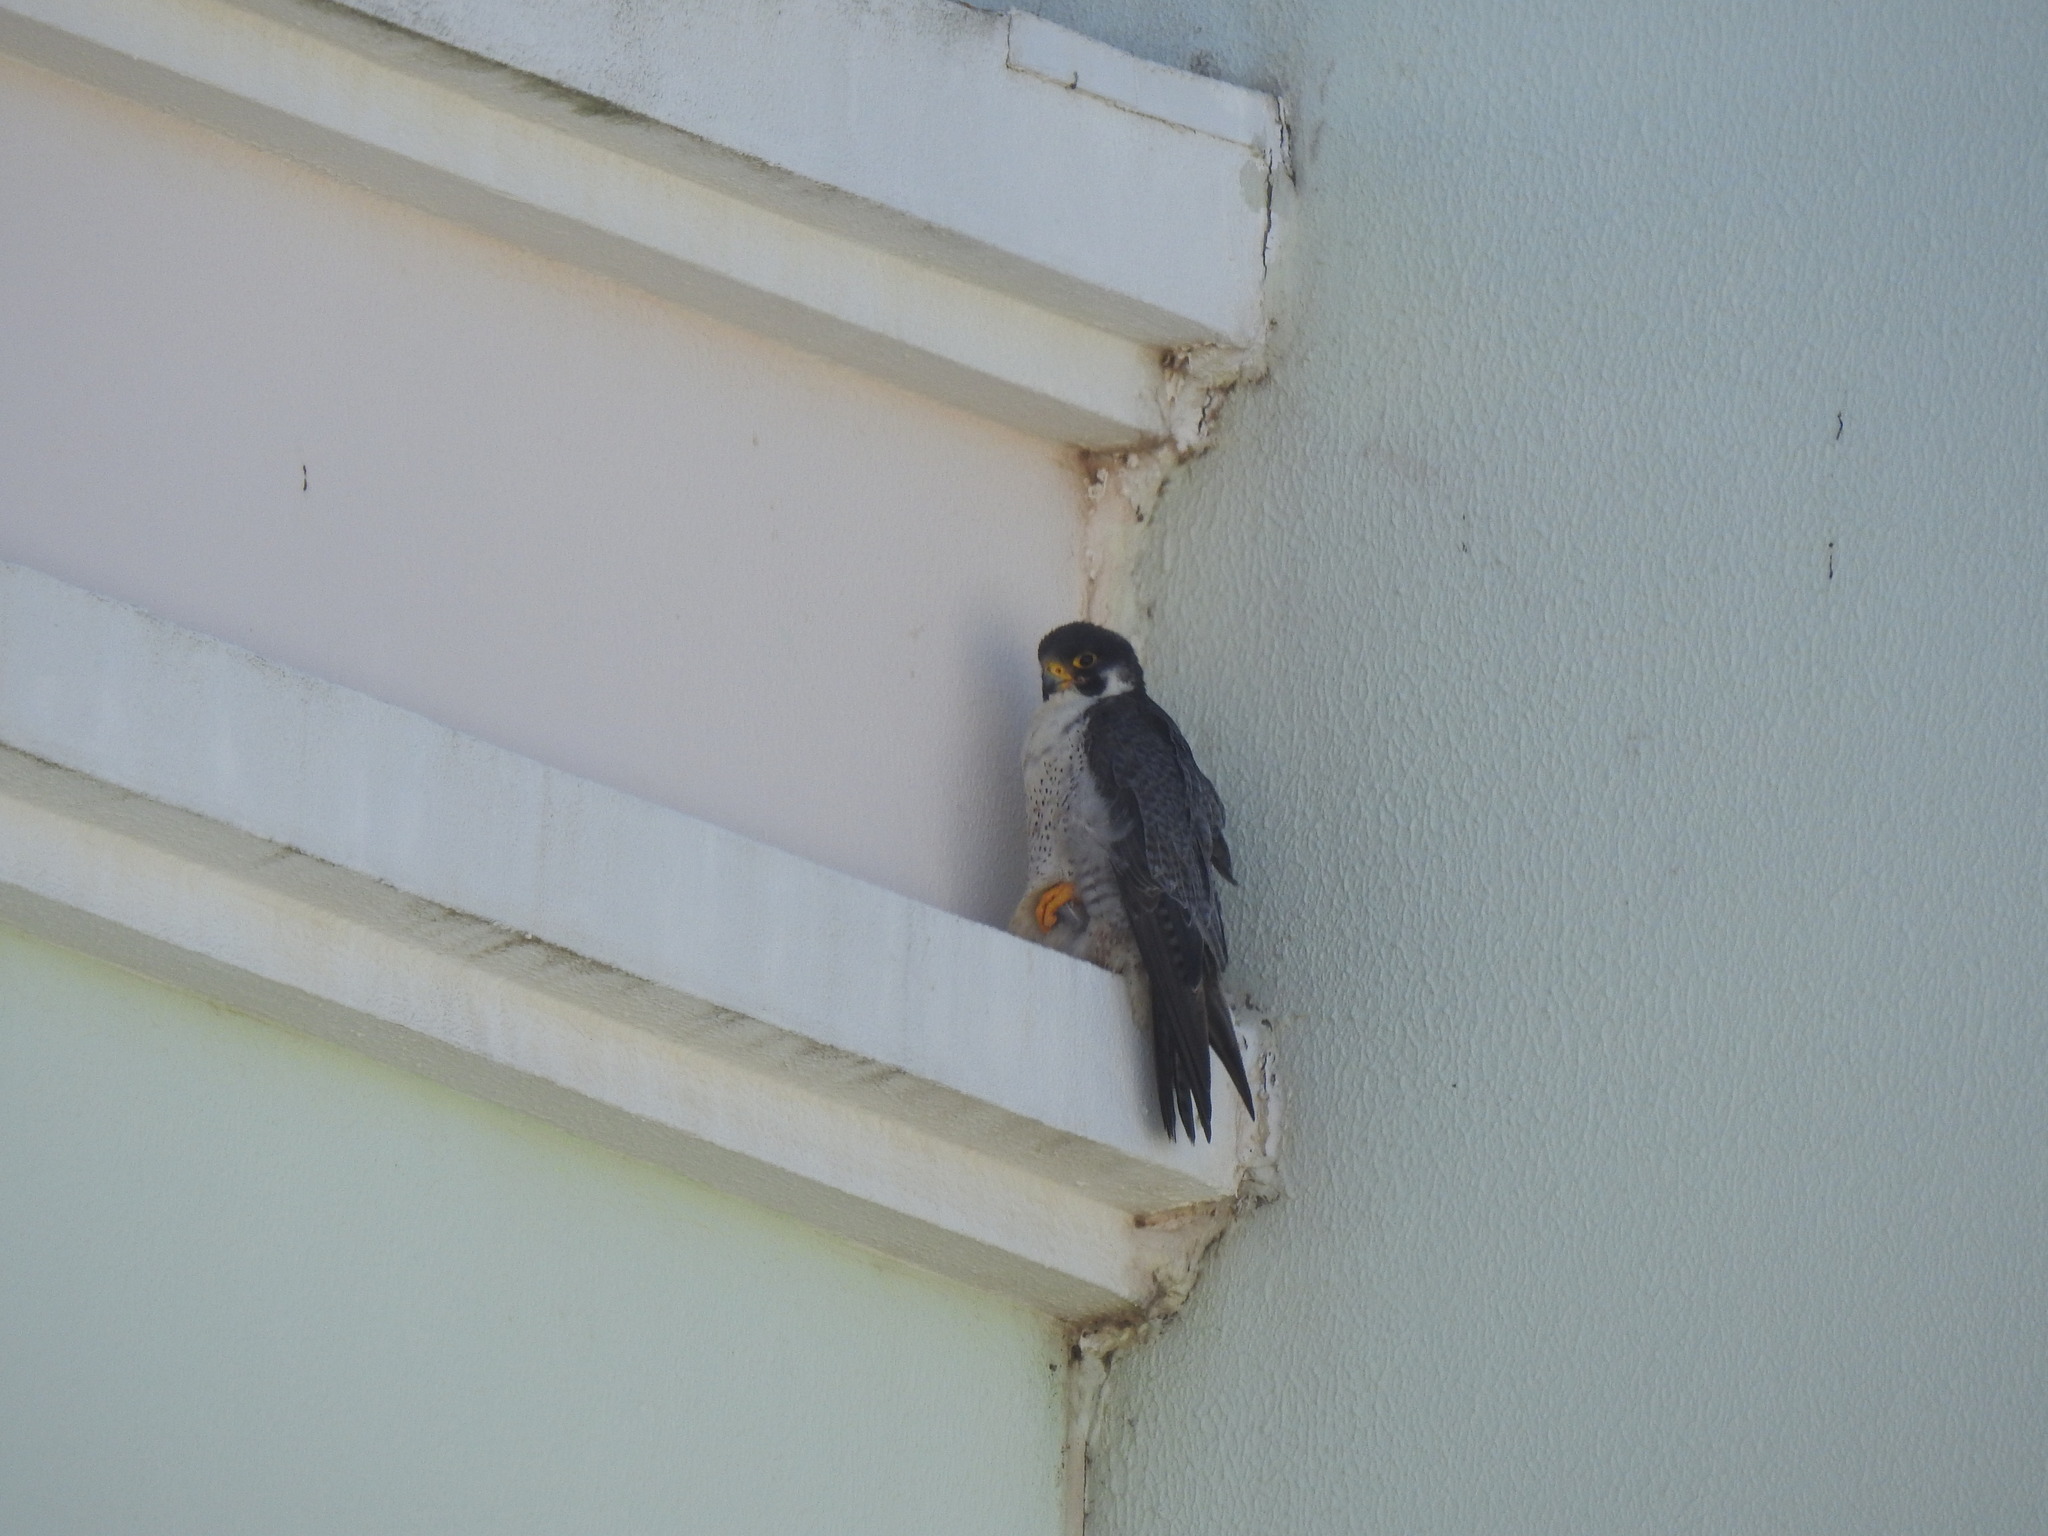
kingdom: Animalia
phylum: Chordata
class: Aves
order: Falconiformes
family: Falconidae
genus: Falco
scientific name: Falco peregrinus
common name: Peregrine falcon
